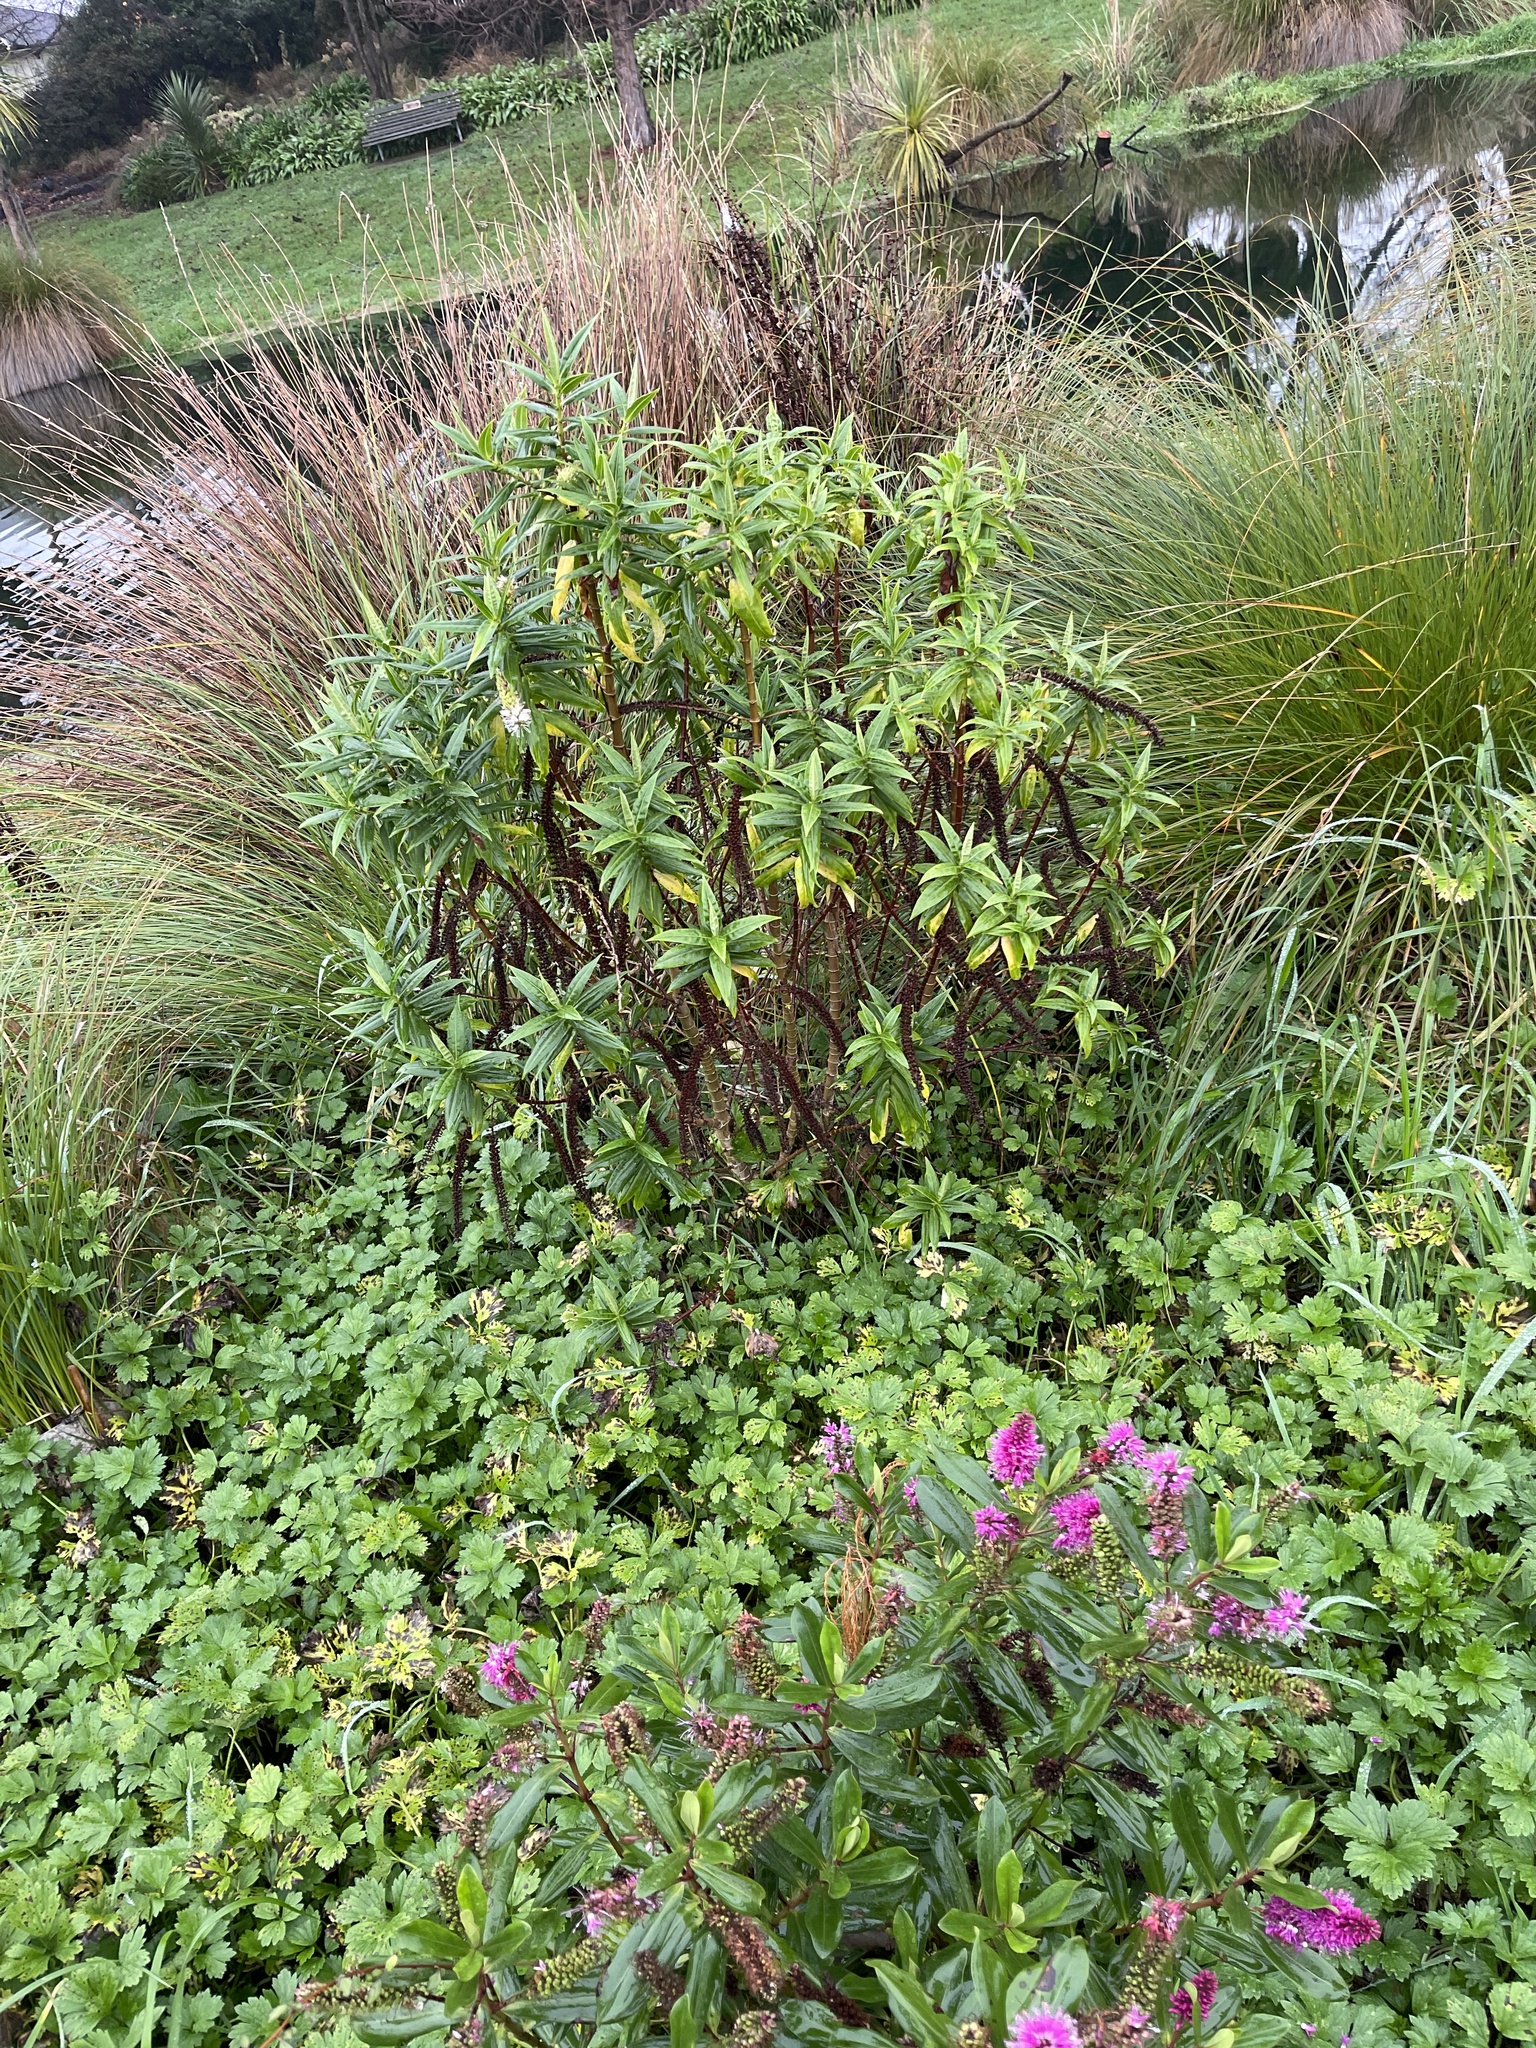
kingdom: Plantae
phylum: Tracheophyta
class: Magnoliopsida
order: Lamiales
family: Plantaginaceae
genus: Veronica
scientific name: Veronica salicifolia
